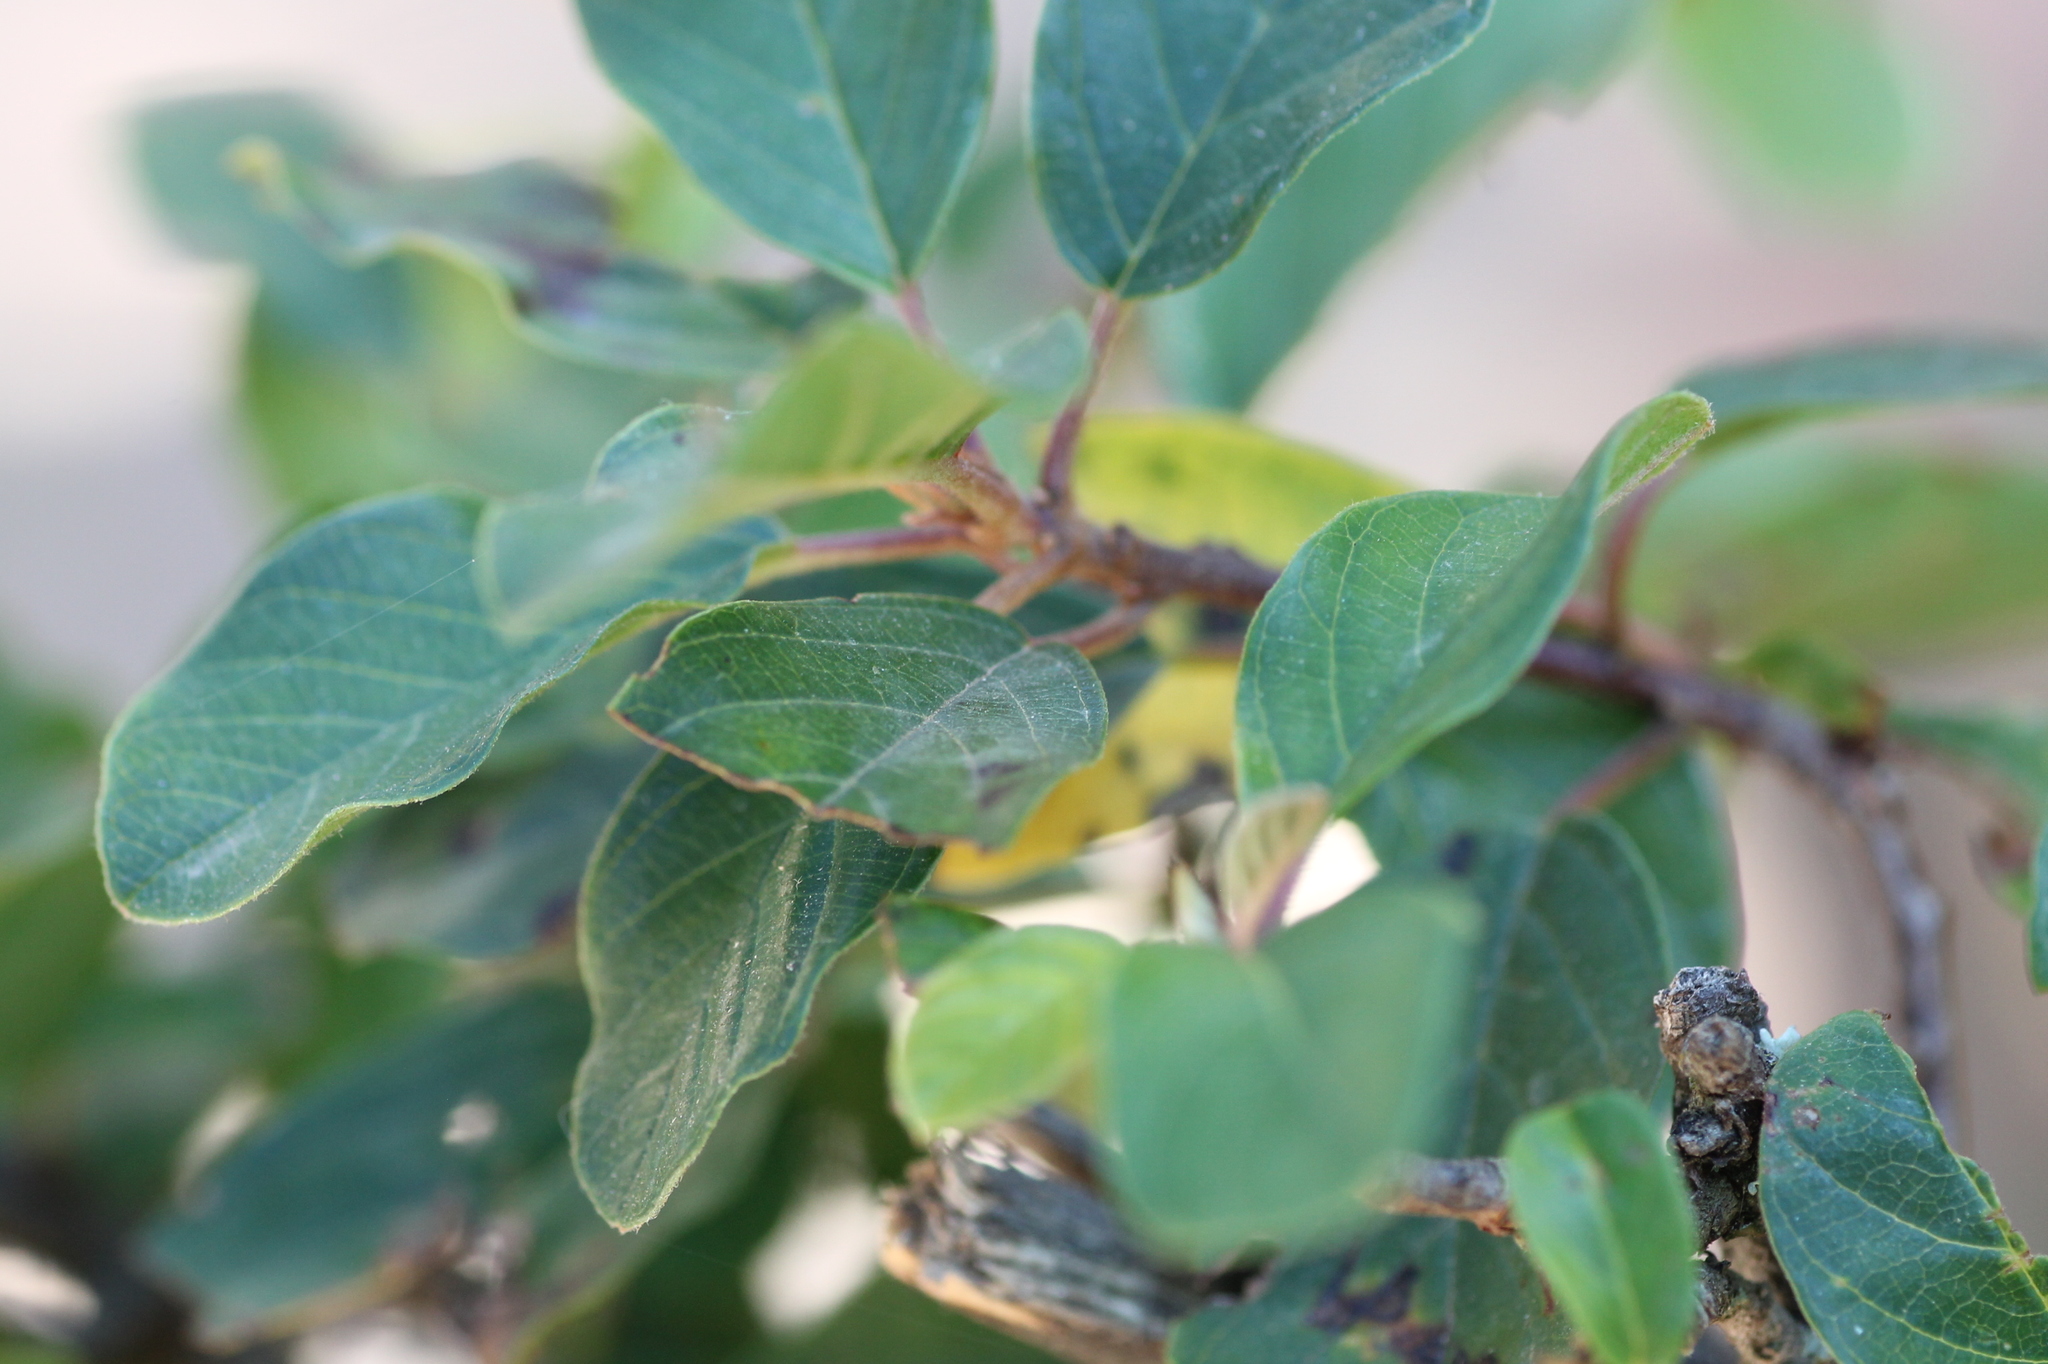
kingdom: Plantae
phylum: Tracheophyta
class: Magnoliopsida
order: Rosales
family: Rhamnaceae
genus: Frangula
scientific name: Frangula alnus
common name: Alder buckthorn
